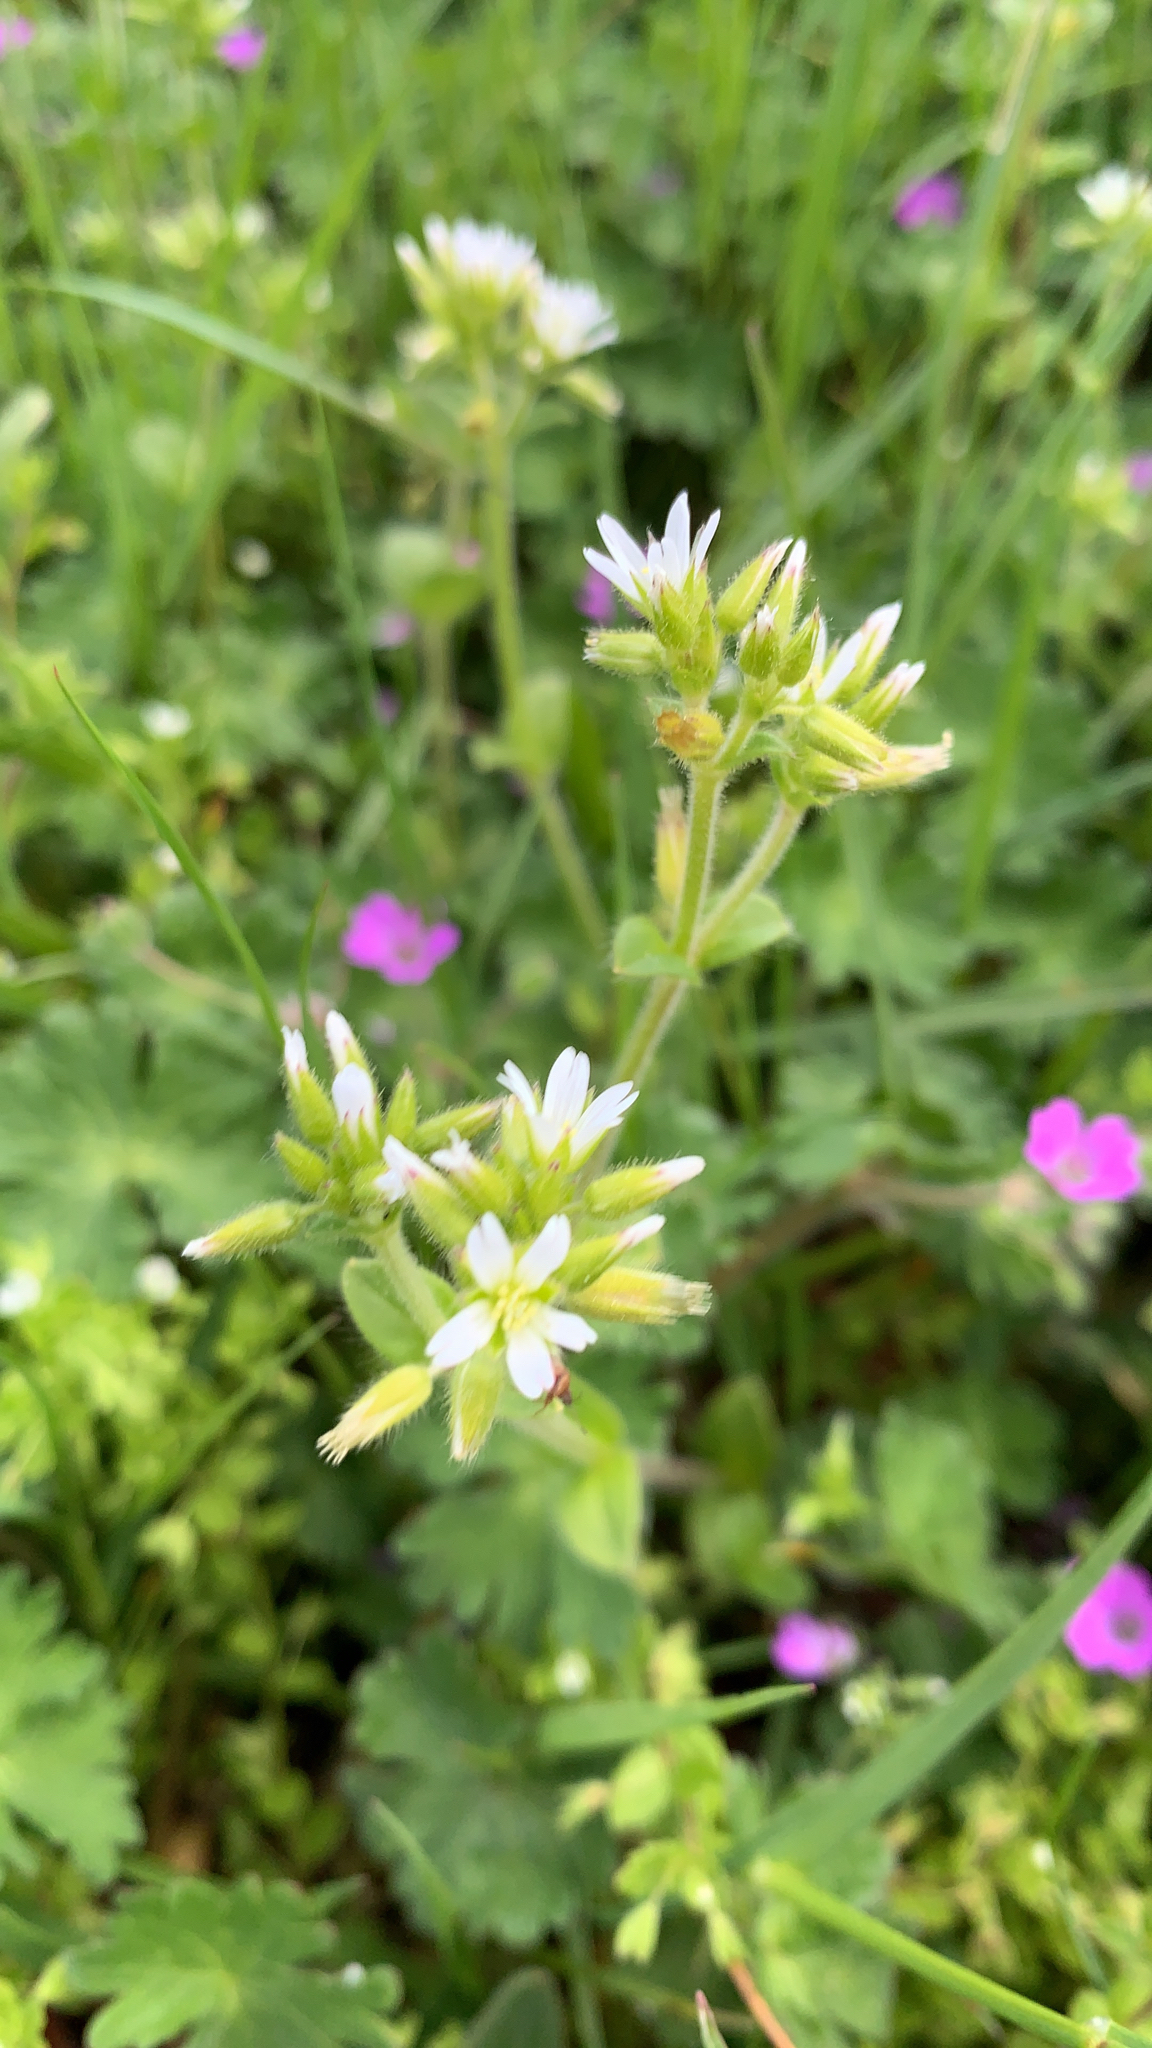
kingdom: Plantae
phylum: Tracheophyta
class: Magnoliopsida
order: Caryophyllales
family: Caryophyllaceae
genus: Cerastium
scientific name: Cerastium glomeratum
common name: Sticky chickweed
